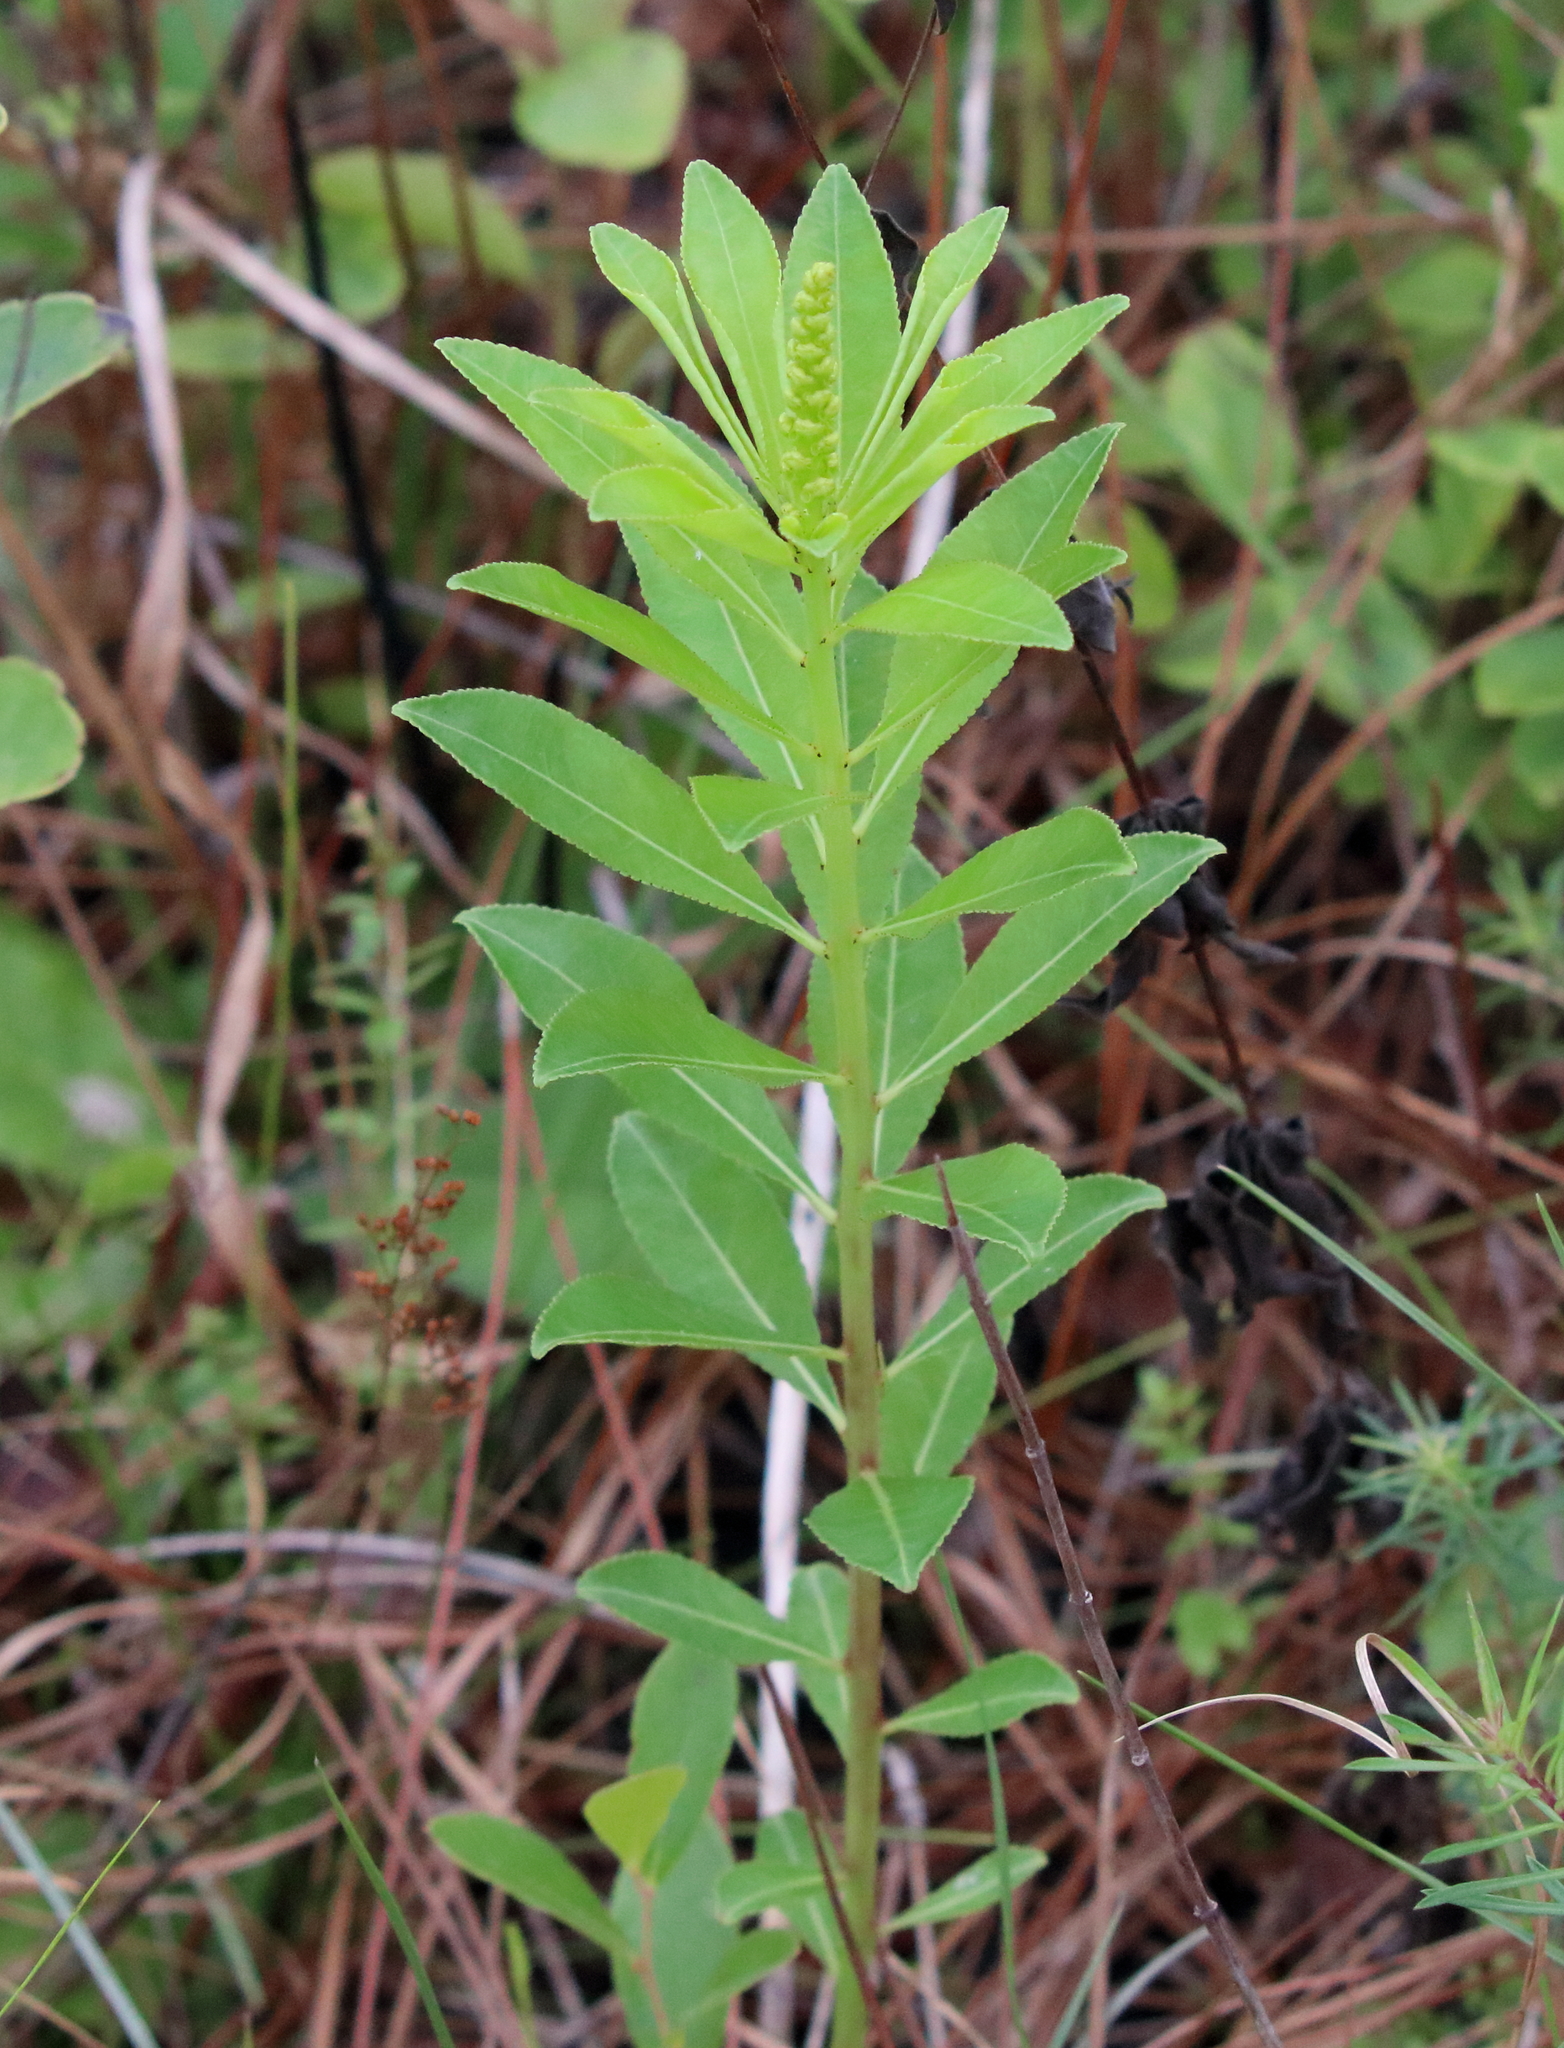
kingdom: Plantae
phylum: Tracheophyta
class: Magnoliopsida
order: Malpighiales
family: Euphorbiaceae
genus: Stillingia
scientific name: Stillingia sylvatica
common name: Queen's-delight
